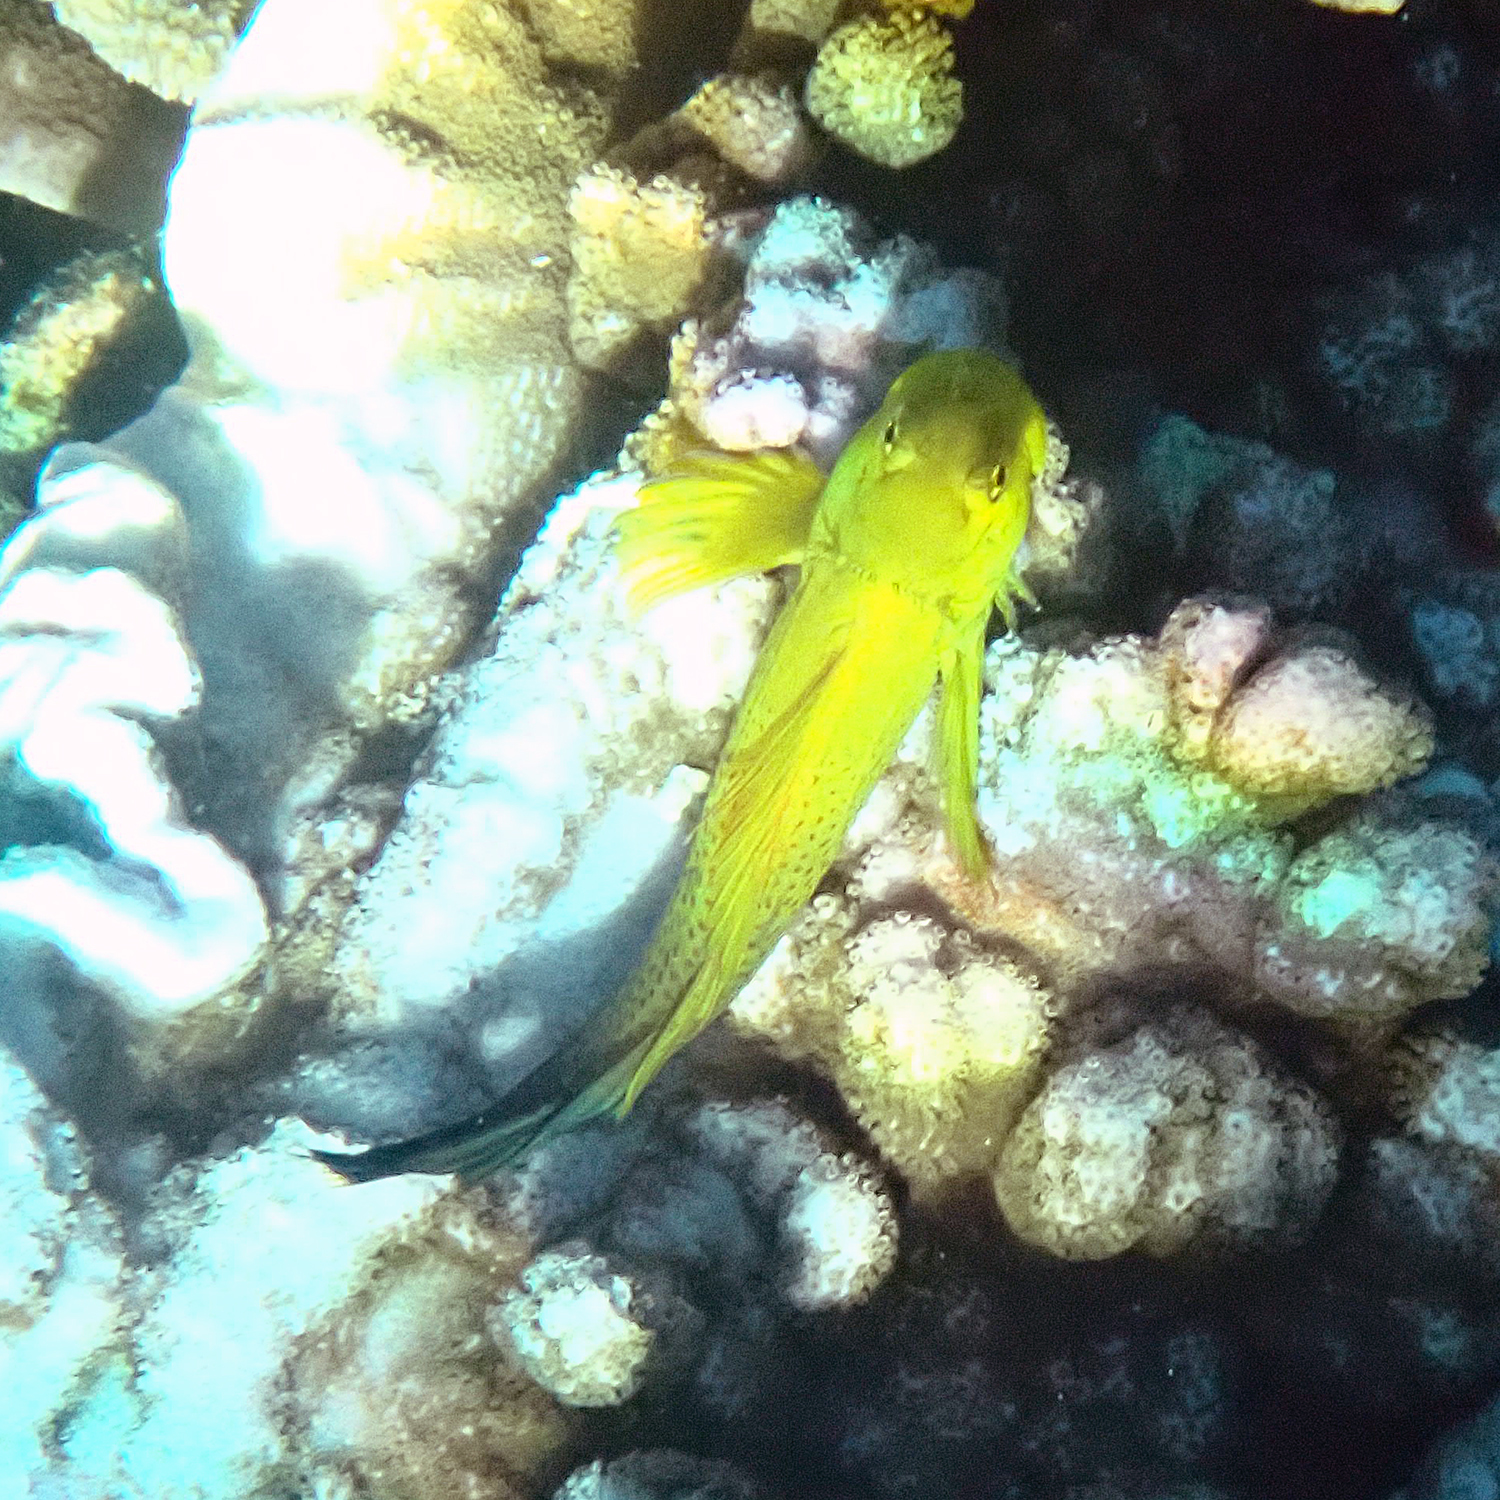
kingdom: Animalia
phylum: Chordata
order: Perciformes
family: Blenniidae
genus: Cirripectes
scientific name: Cirripectes chelomatus
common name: Lady musgrave blenny
